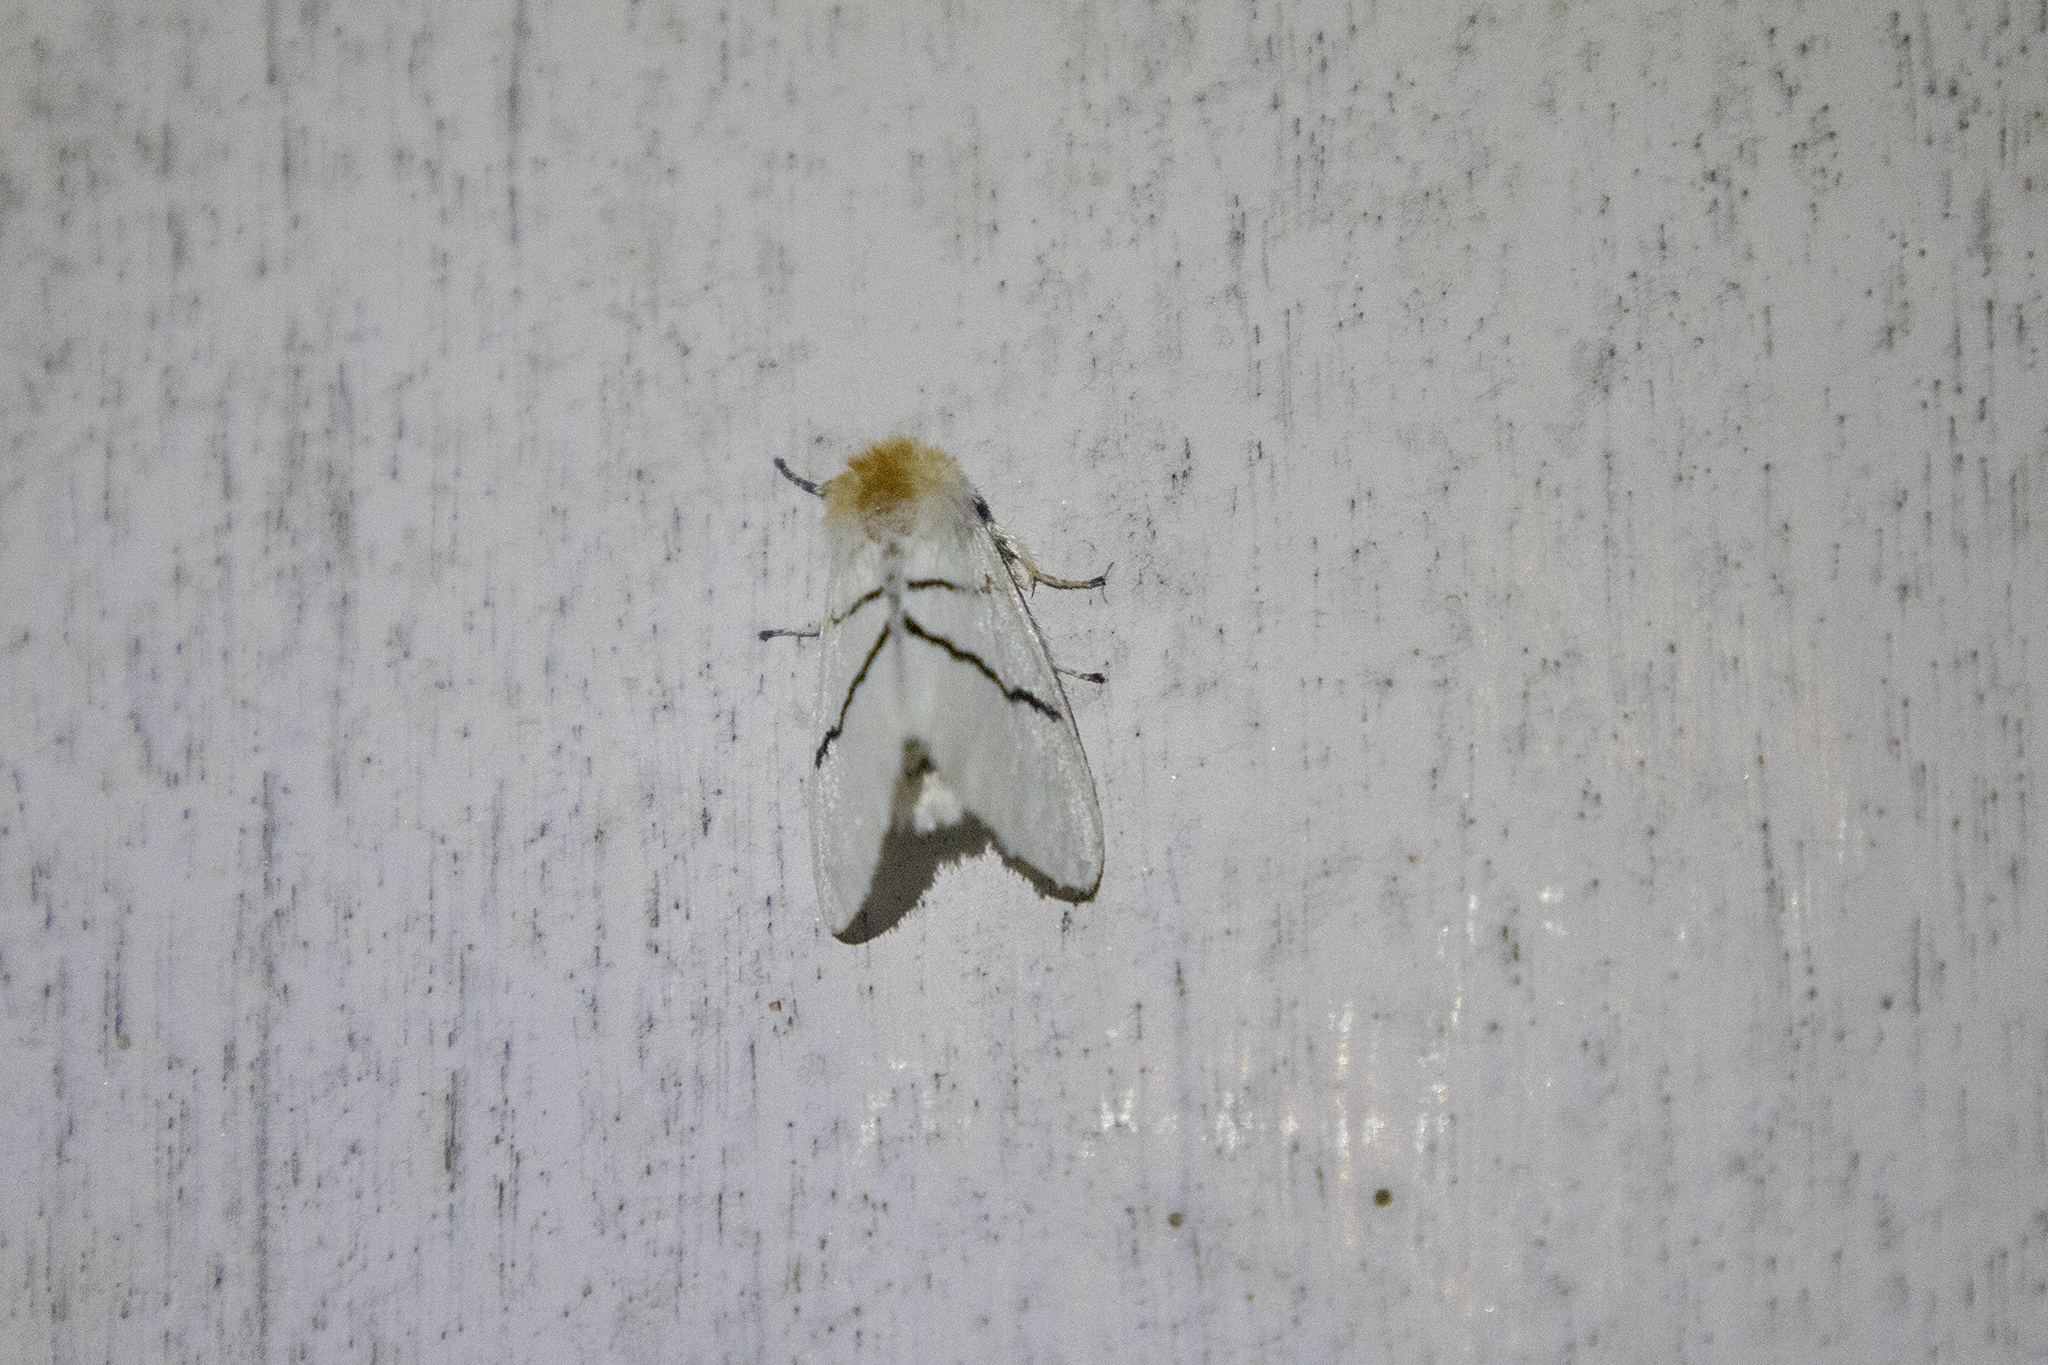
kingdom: Animalia
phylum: Arthropoda
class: Insecta
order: Lepidoptera
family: Notodontidae
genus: Gazalina
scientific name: Gazalina transversa
